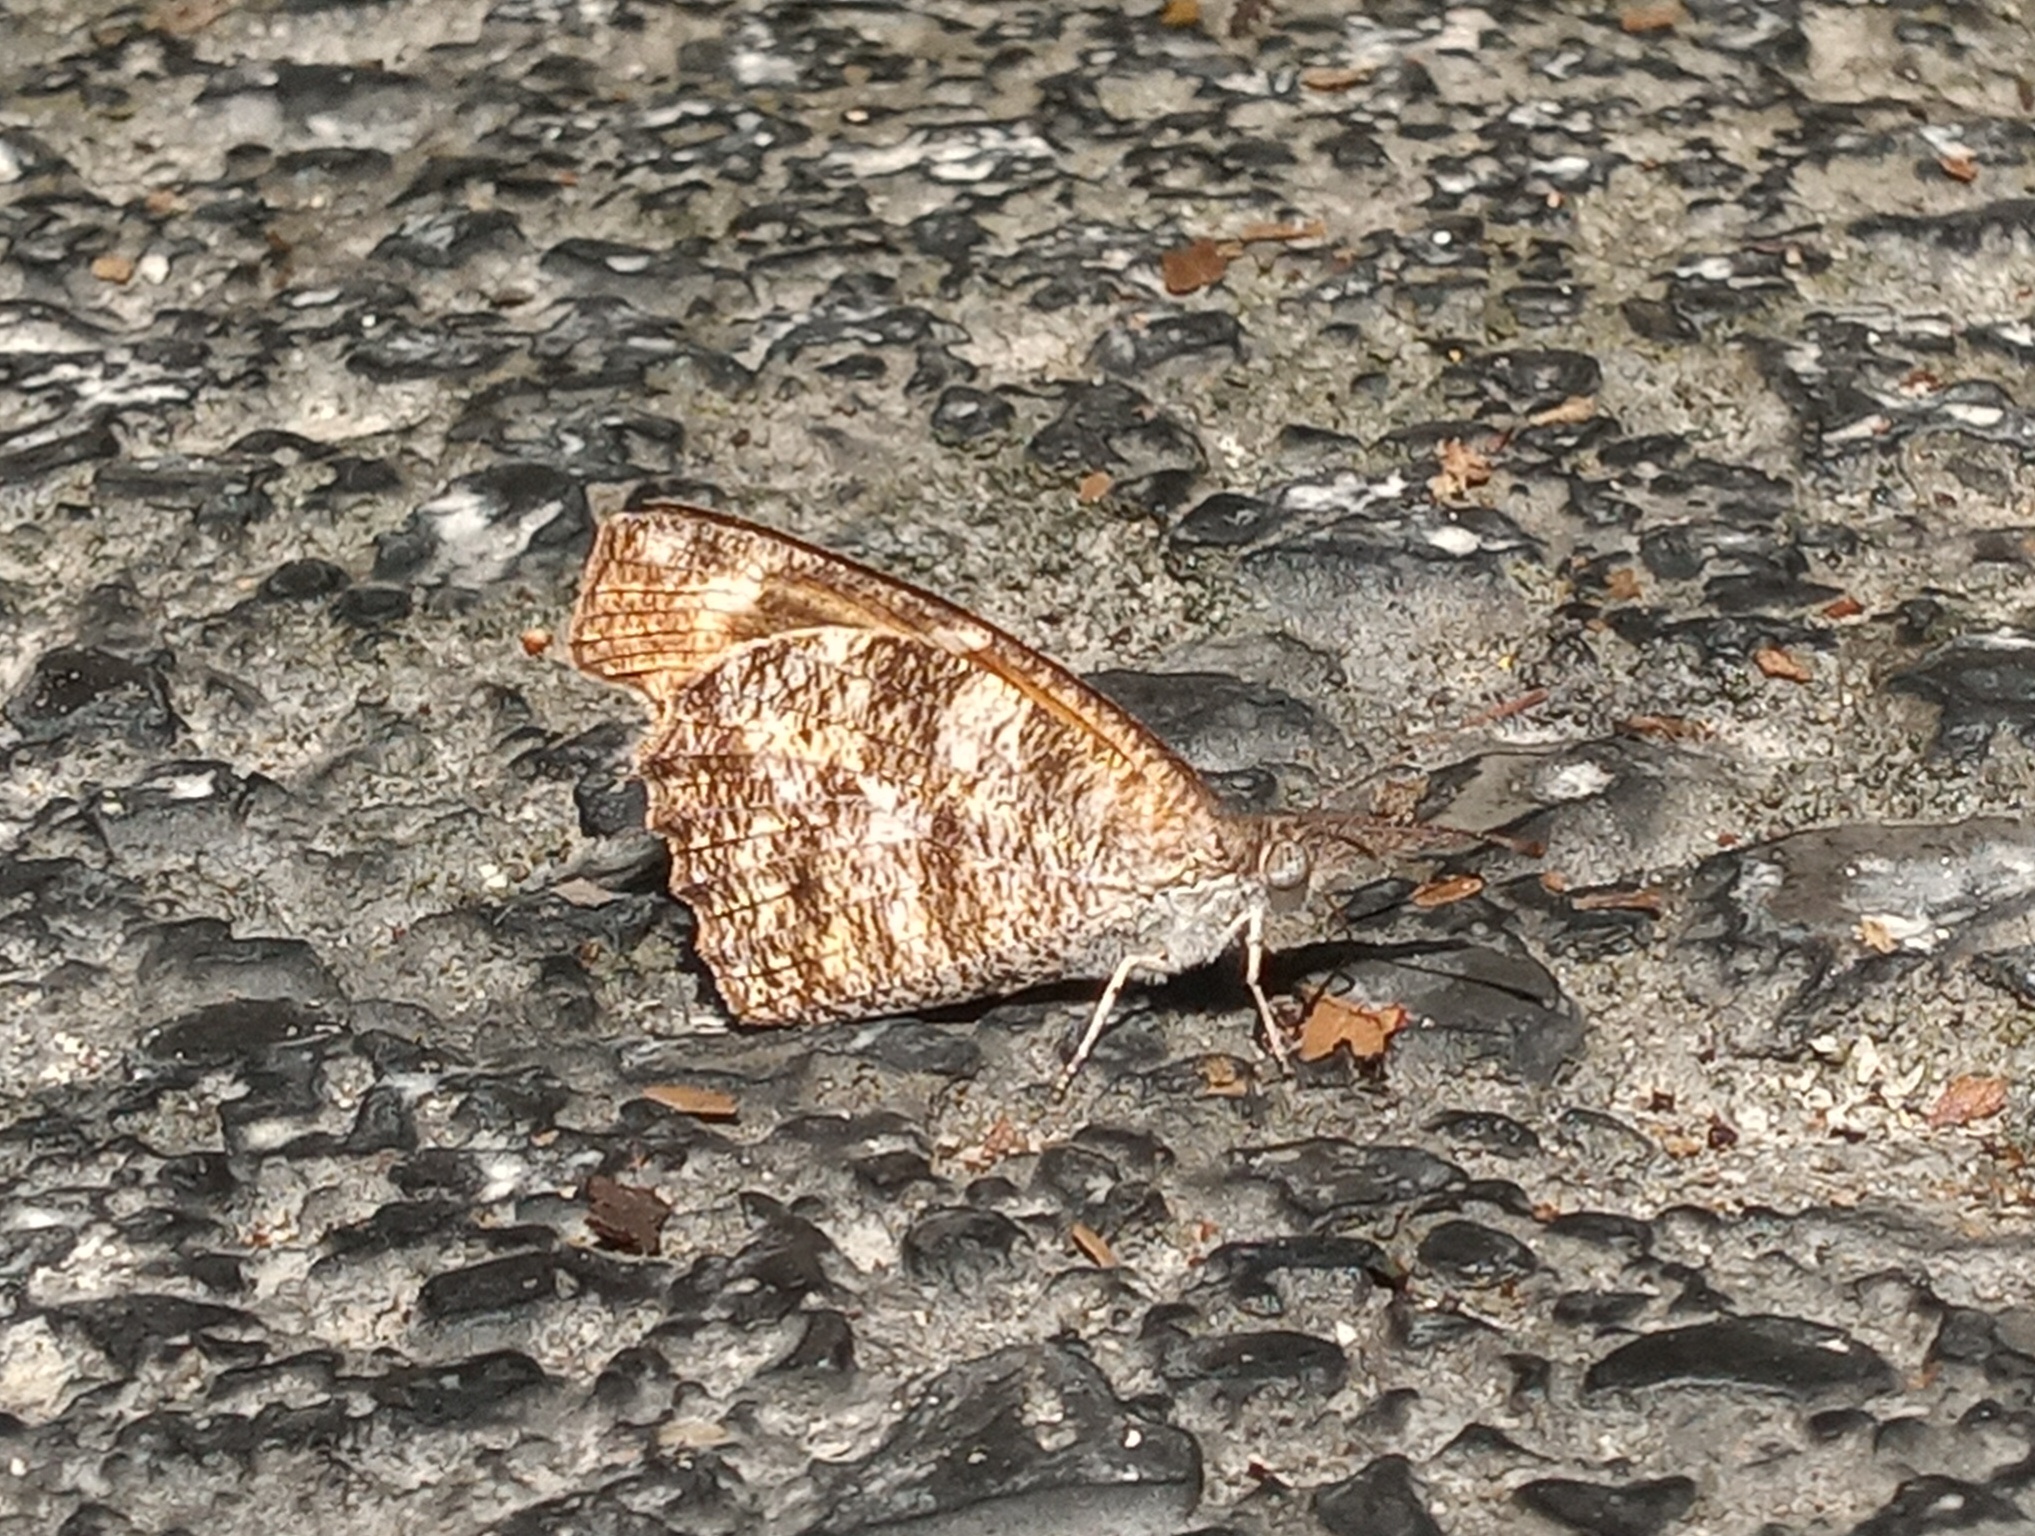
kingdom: Animalia
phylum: Arthropoda
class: Insecta
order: Lepidoptera
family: Nymphalidae
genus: Libytheana
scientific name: Libytheana carinenta
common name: American snout
